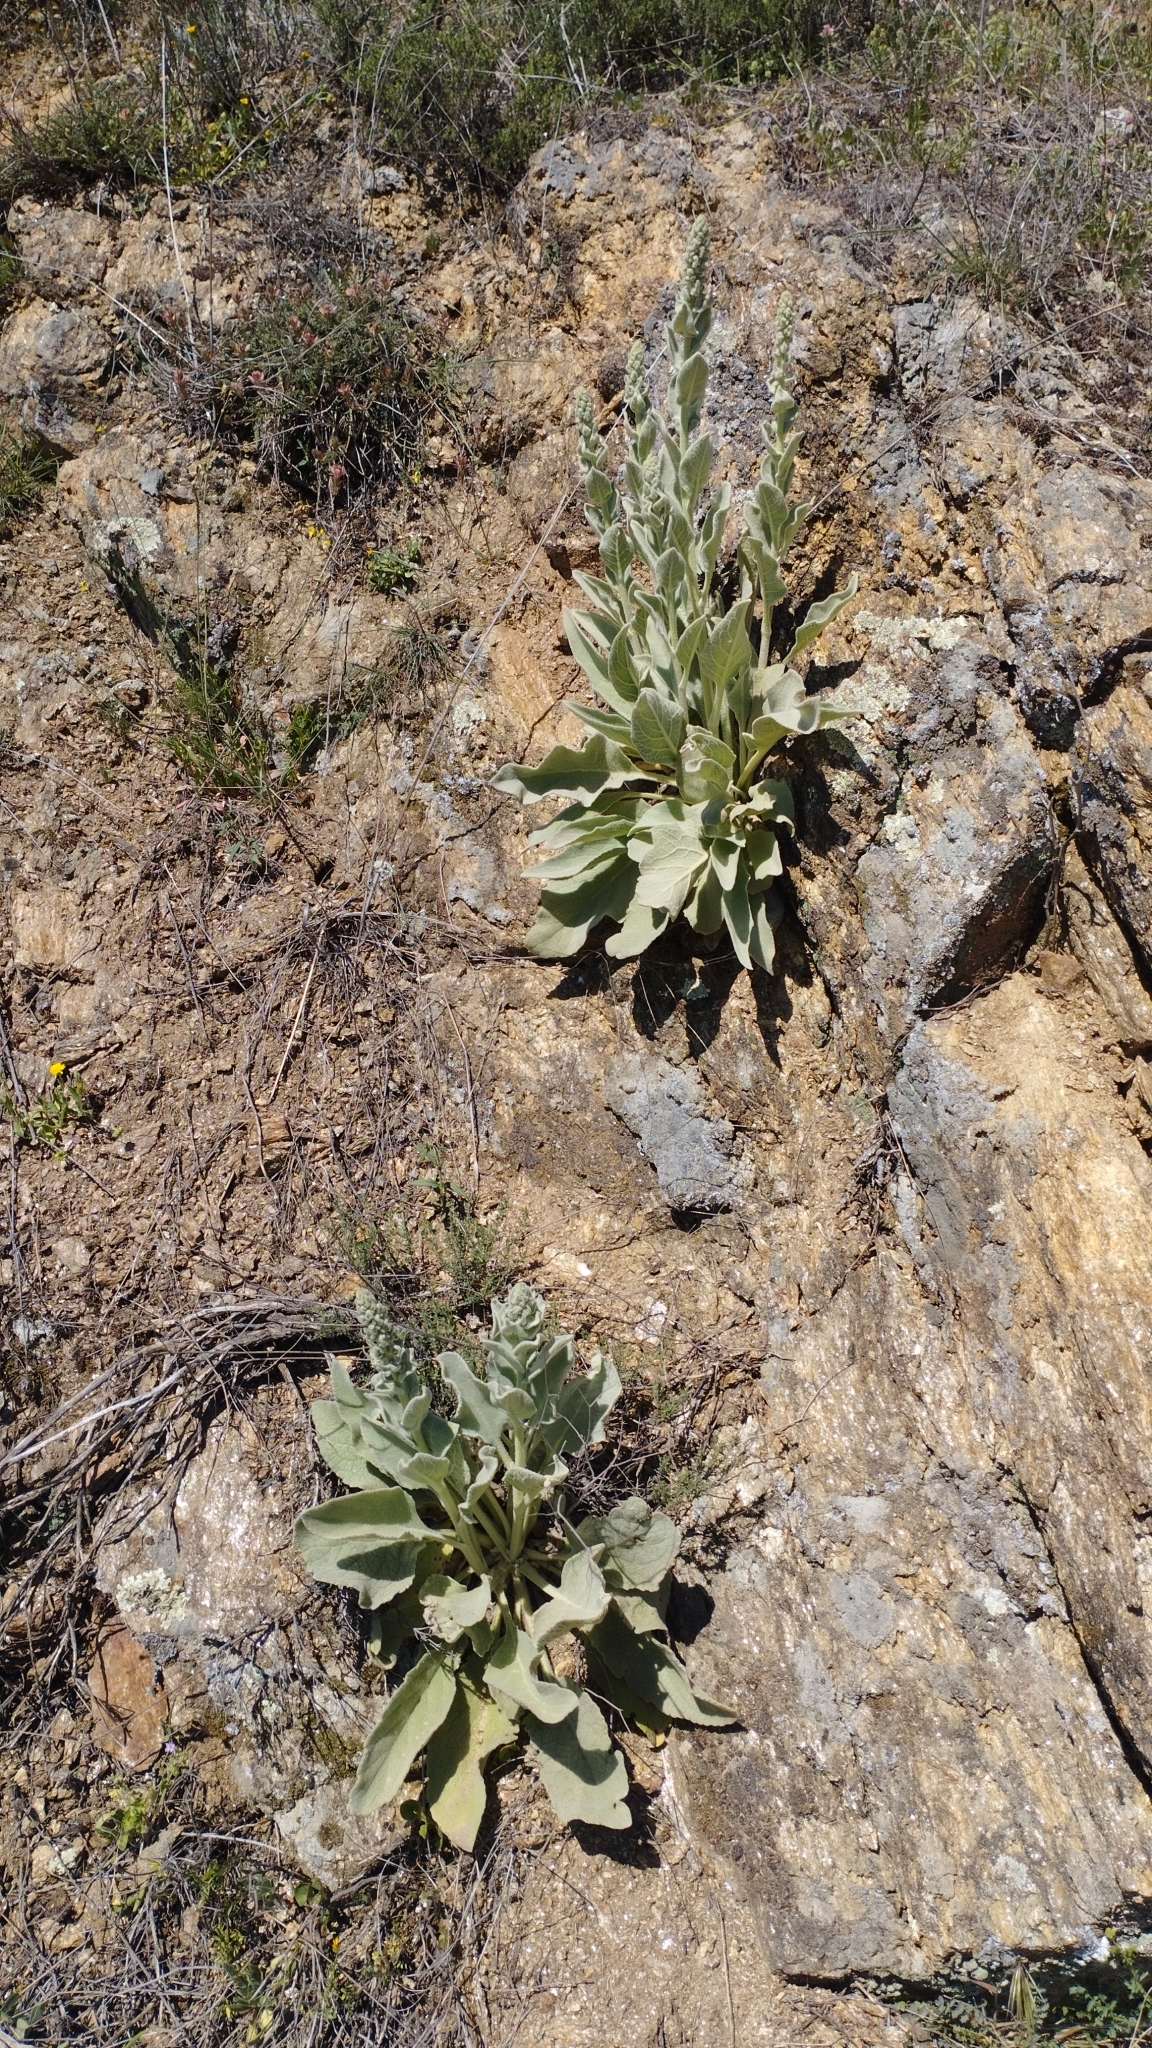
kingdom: Plantae
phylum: Tracheophyta
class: Magnoliopsida
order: Lamiales
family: Scrophulariaceae
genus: Verbascum
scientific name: Verbascum rotundifolium
